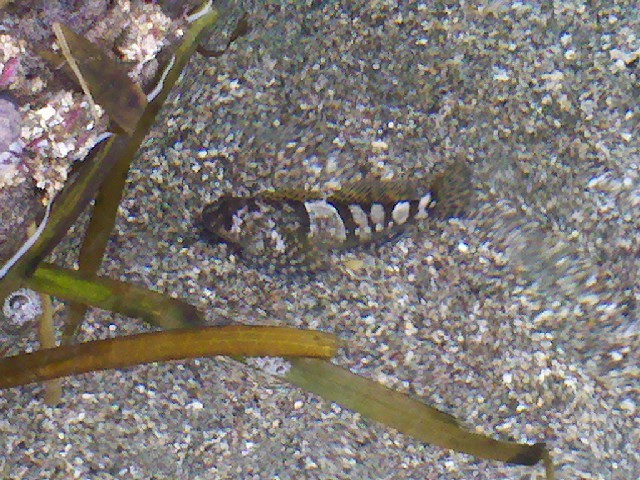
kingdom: Animalia
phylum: Chordata
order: Scorpaeniformes
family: Cottidae
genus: Clinocottus
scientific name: Clinocottus globiceps
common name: Mosshead sculpin
